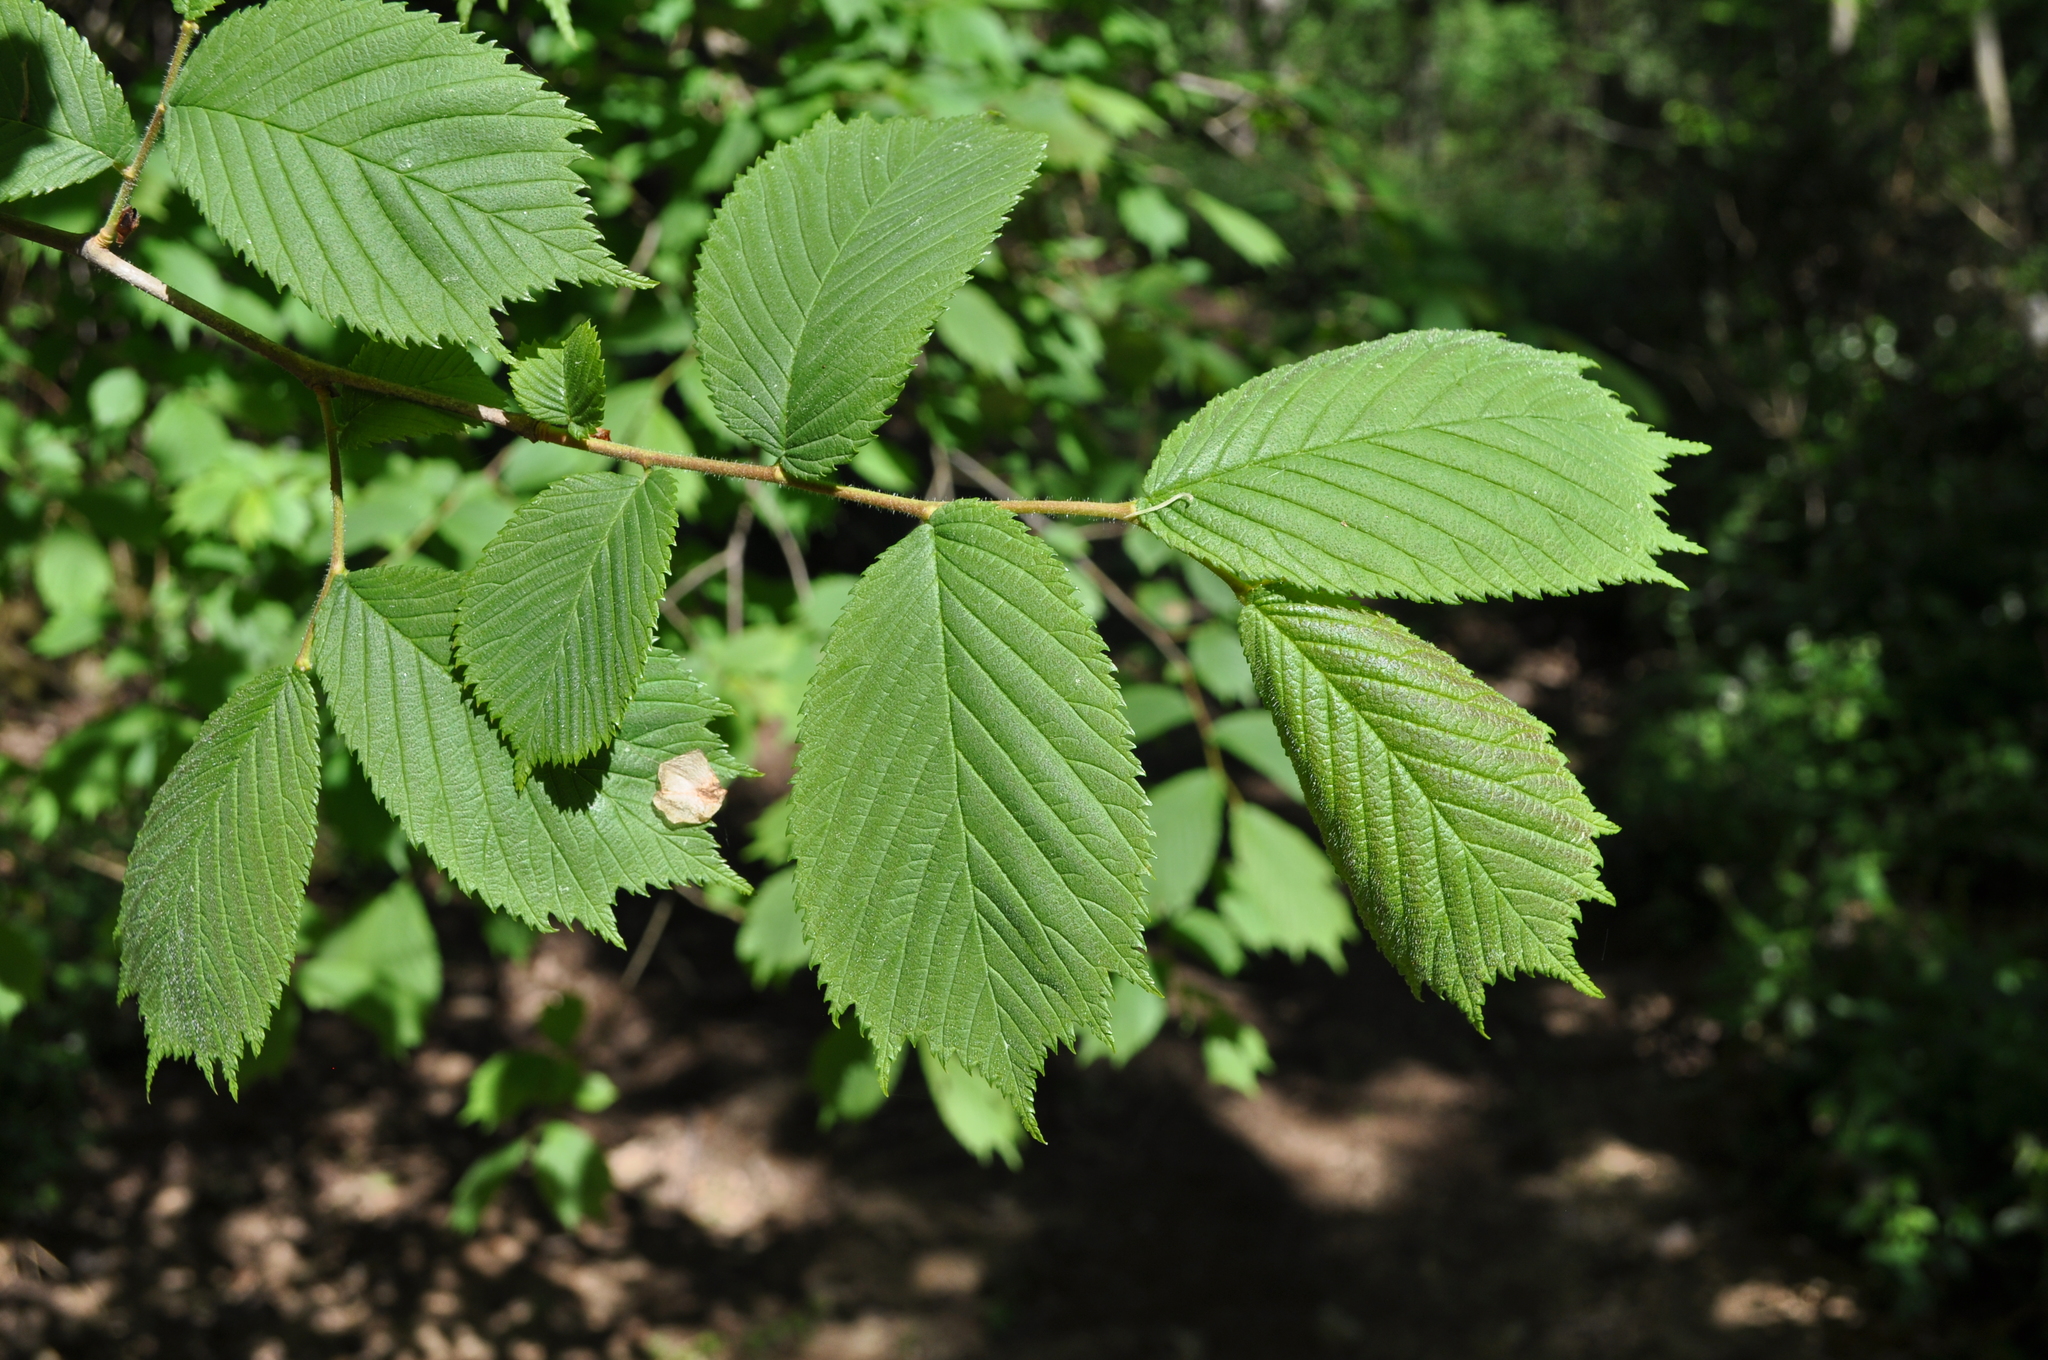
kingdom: Plantae
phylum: Tracheophyta
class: Magnoliopsida
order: Rosales
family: Ulmaceae
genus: Ulmus
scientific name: Ulmus glabra
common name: Wych elm
